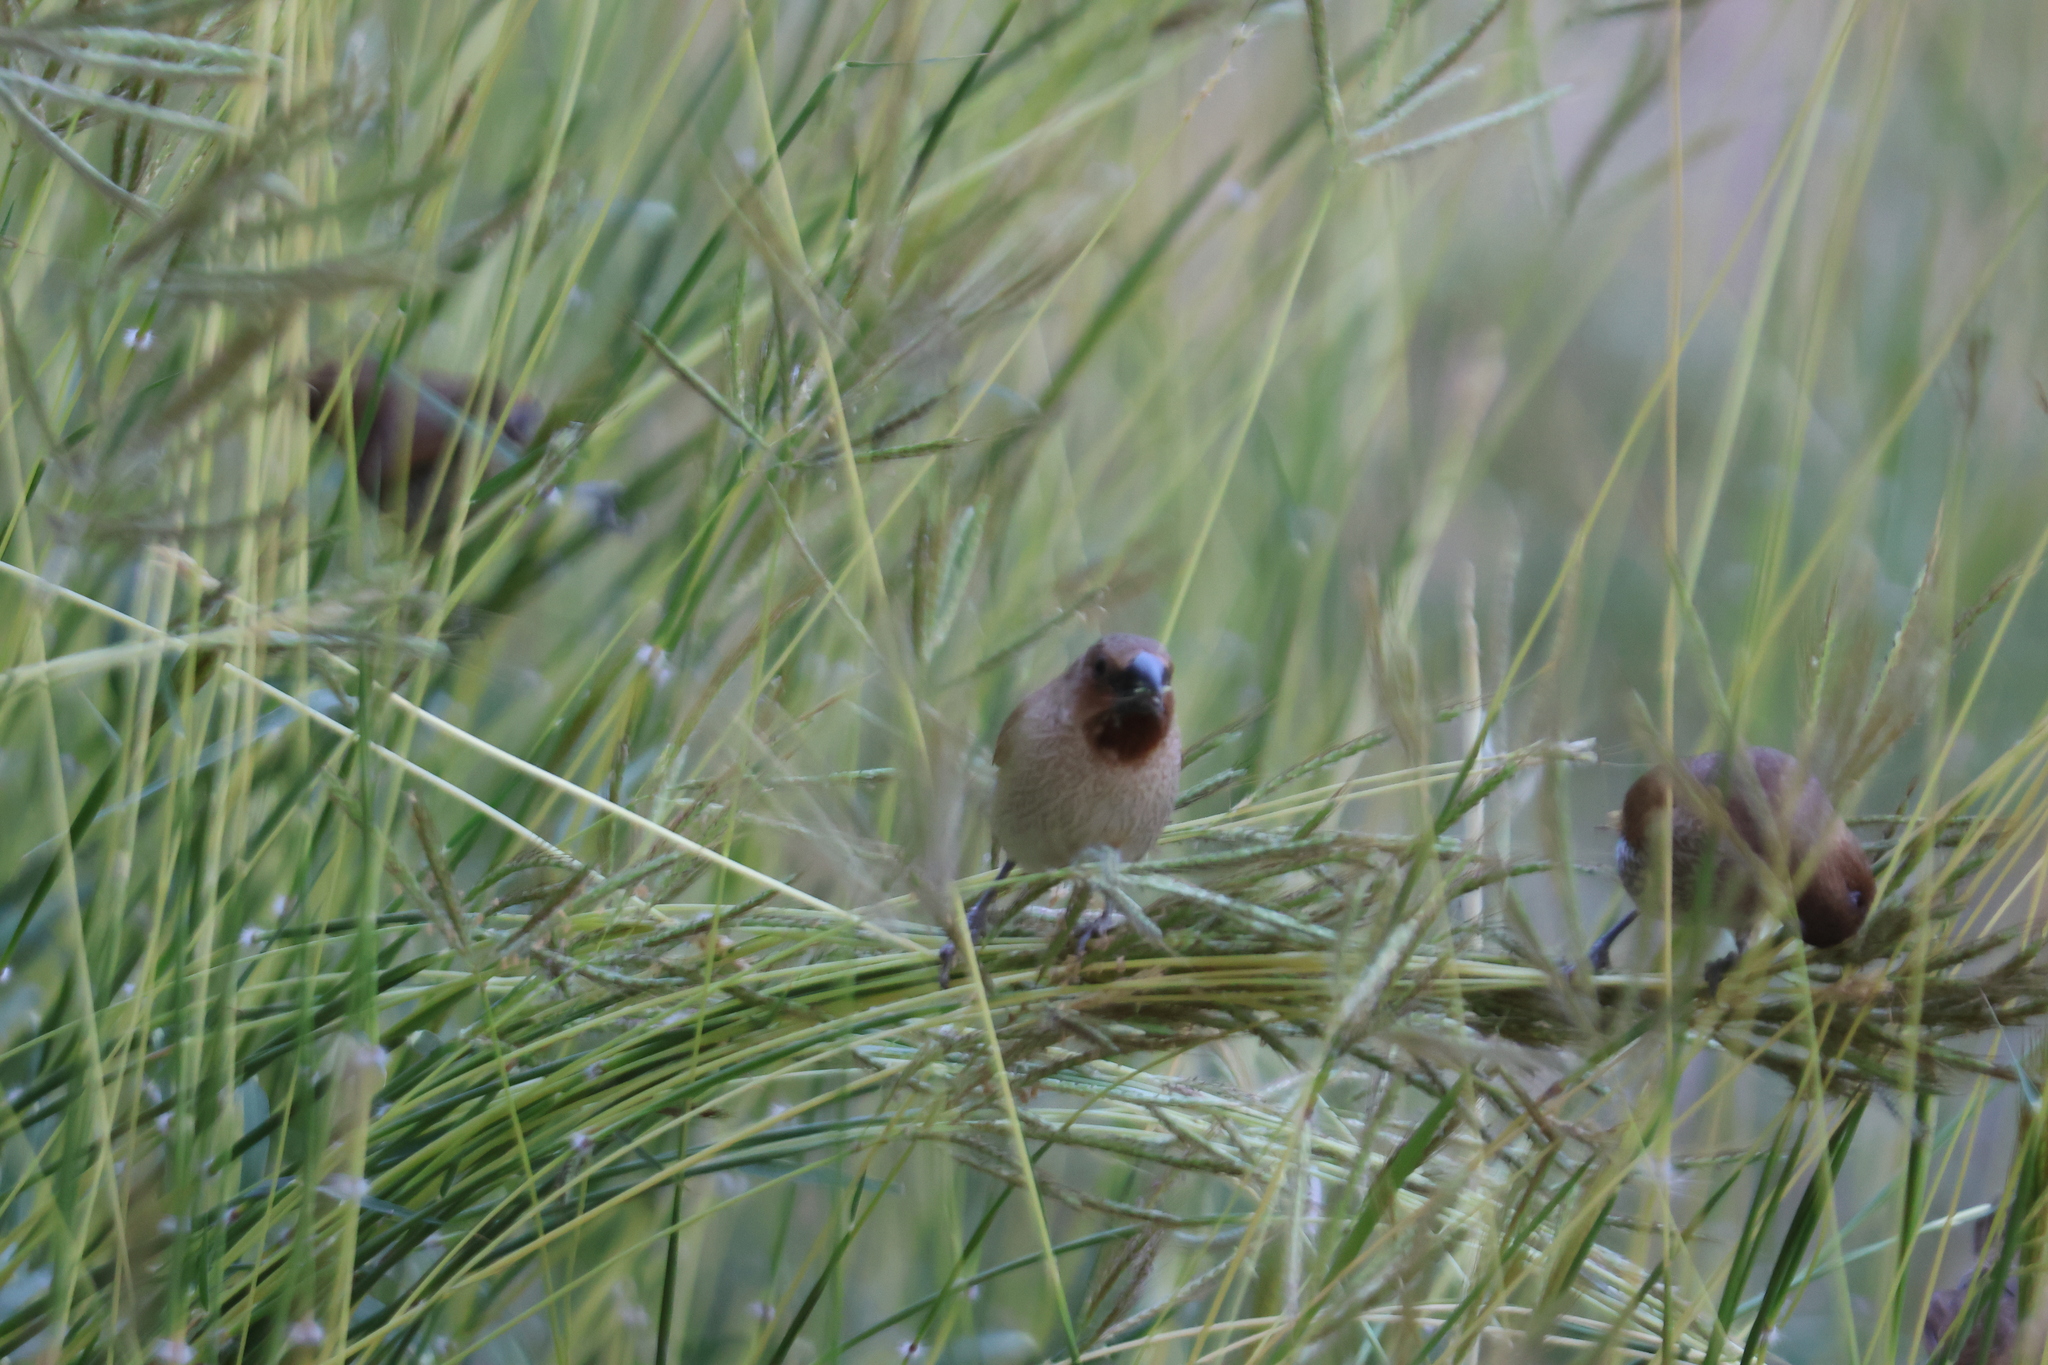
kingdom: Animalia
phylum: Chordata
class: Aves
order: Passeriformes
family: Estrildidae
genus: Lonchura
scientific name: Lonchura punctulata
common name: Scaly-breasted munia
